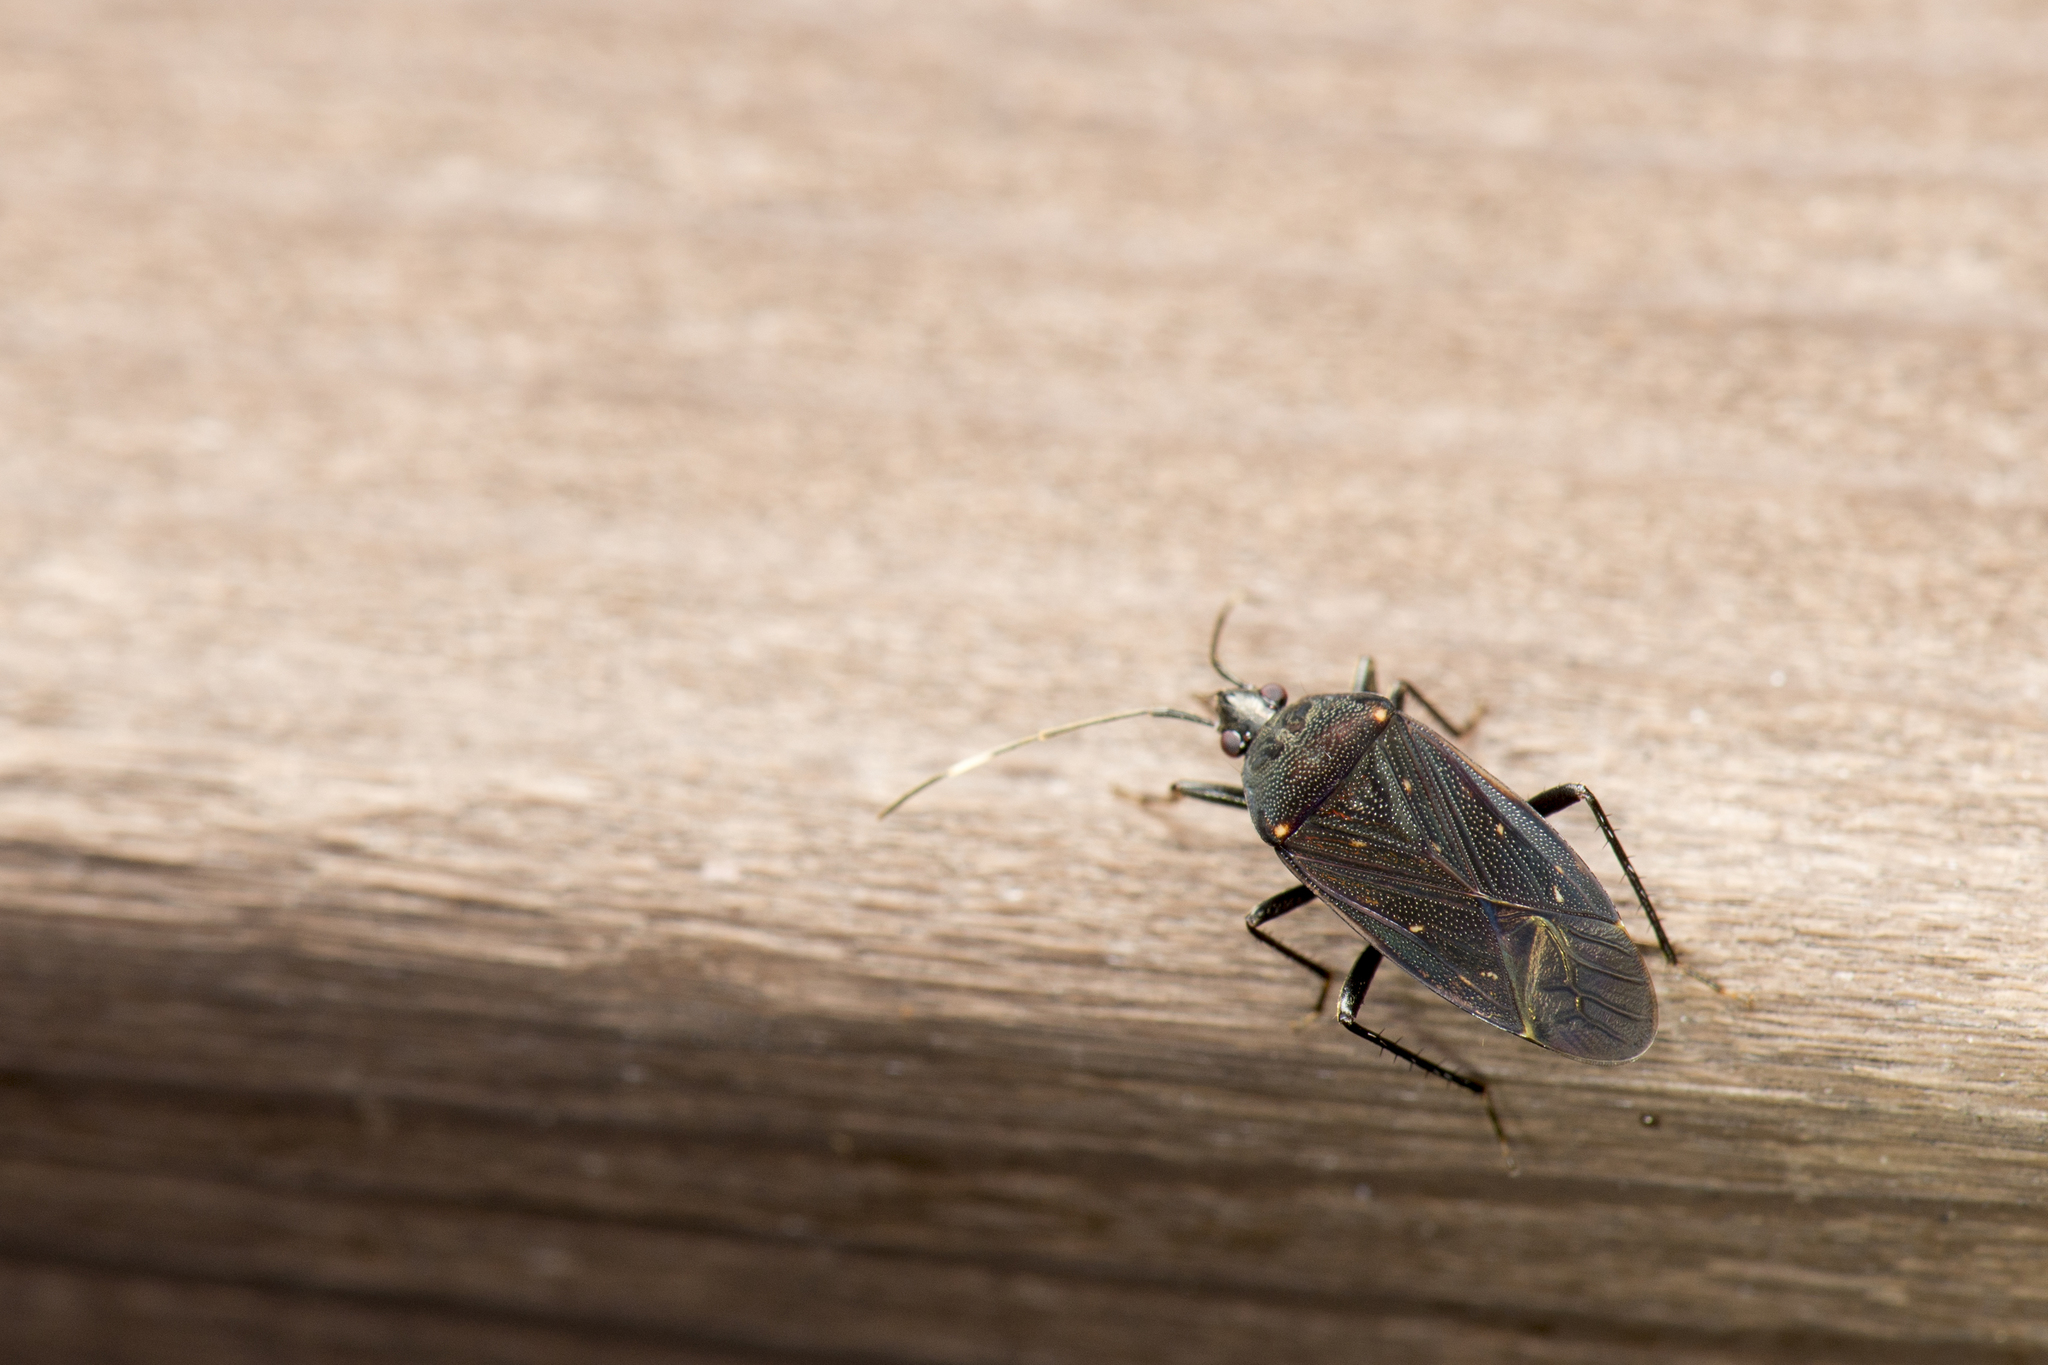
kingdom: Animalia
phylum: Arthropoda
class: Insecta
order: Hemiptera
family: Rhyparochromidae
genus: Neolethaeus
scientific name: Neolethaeus assamensis
